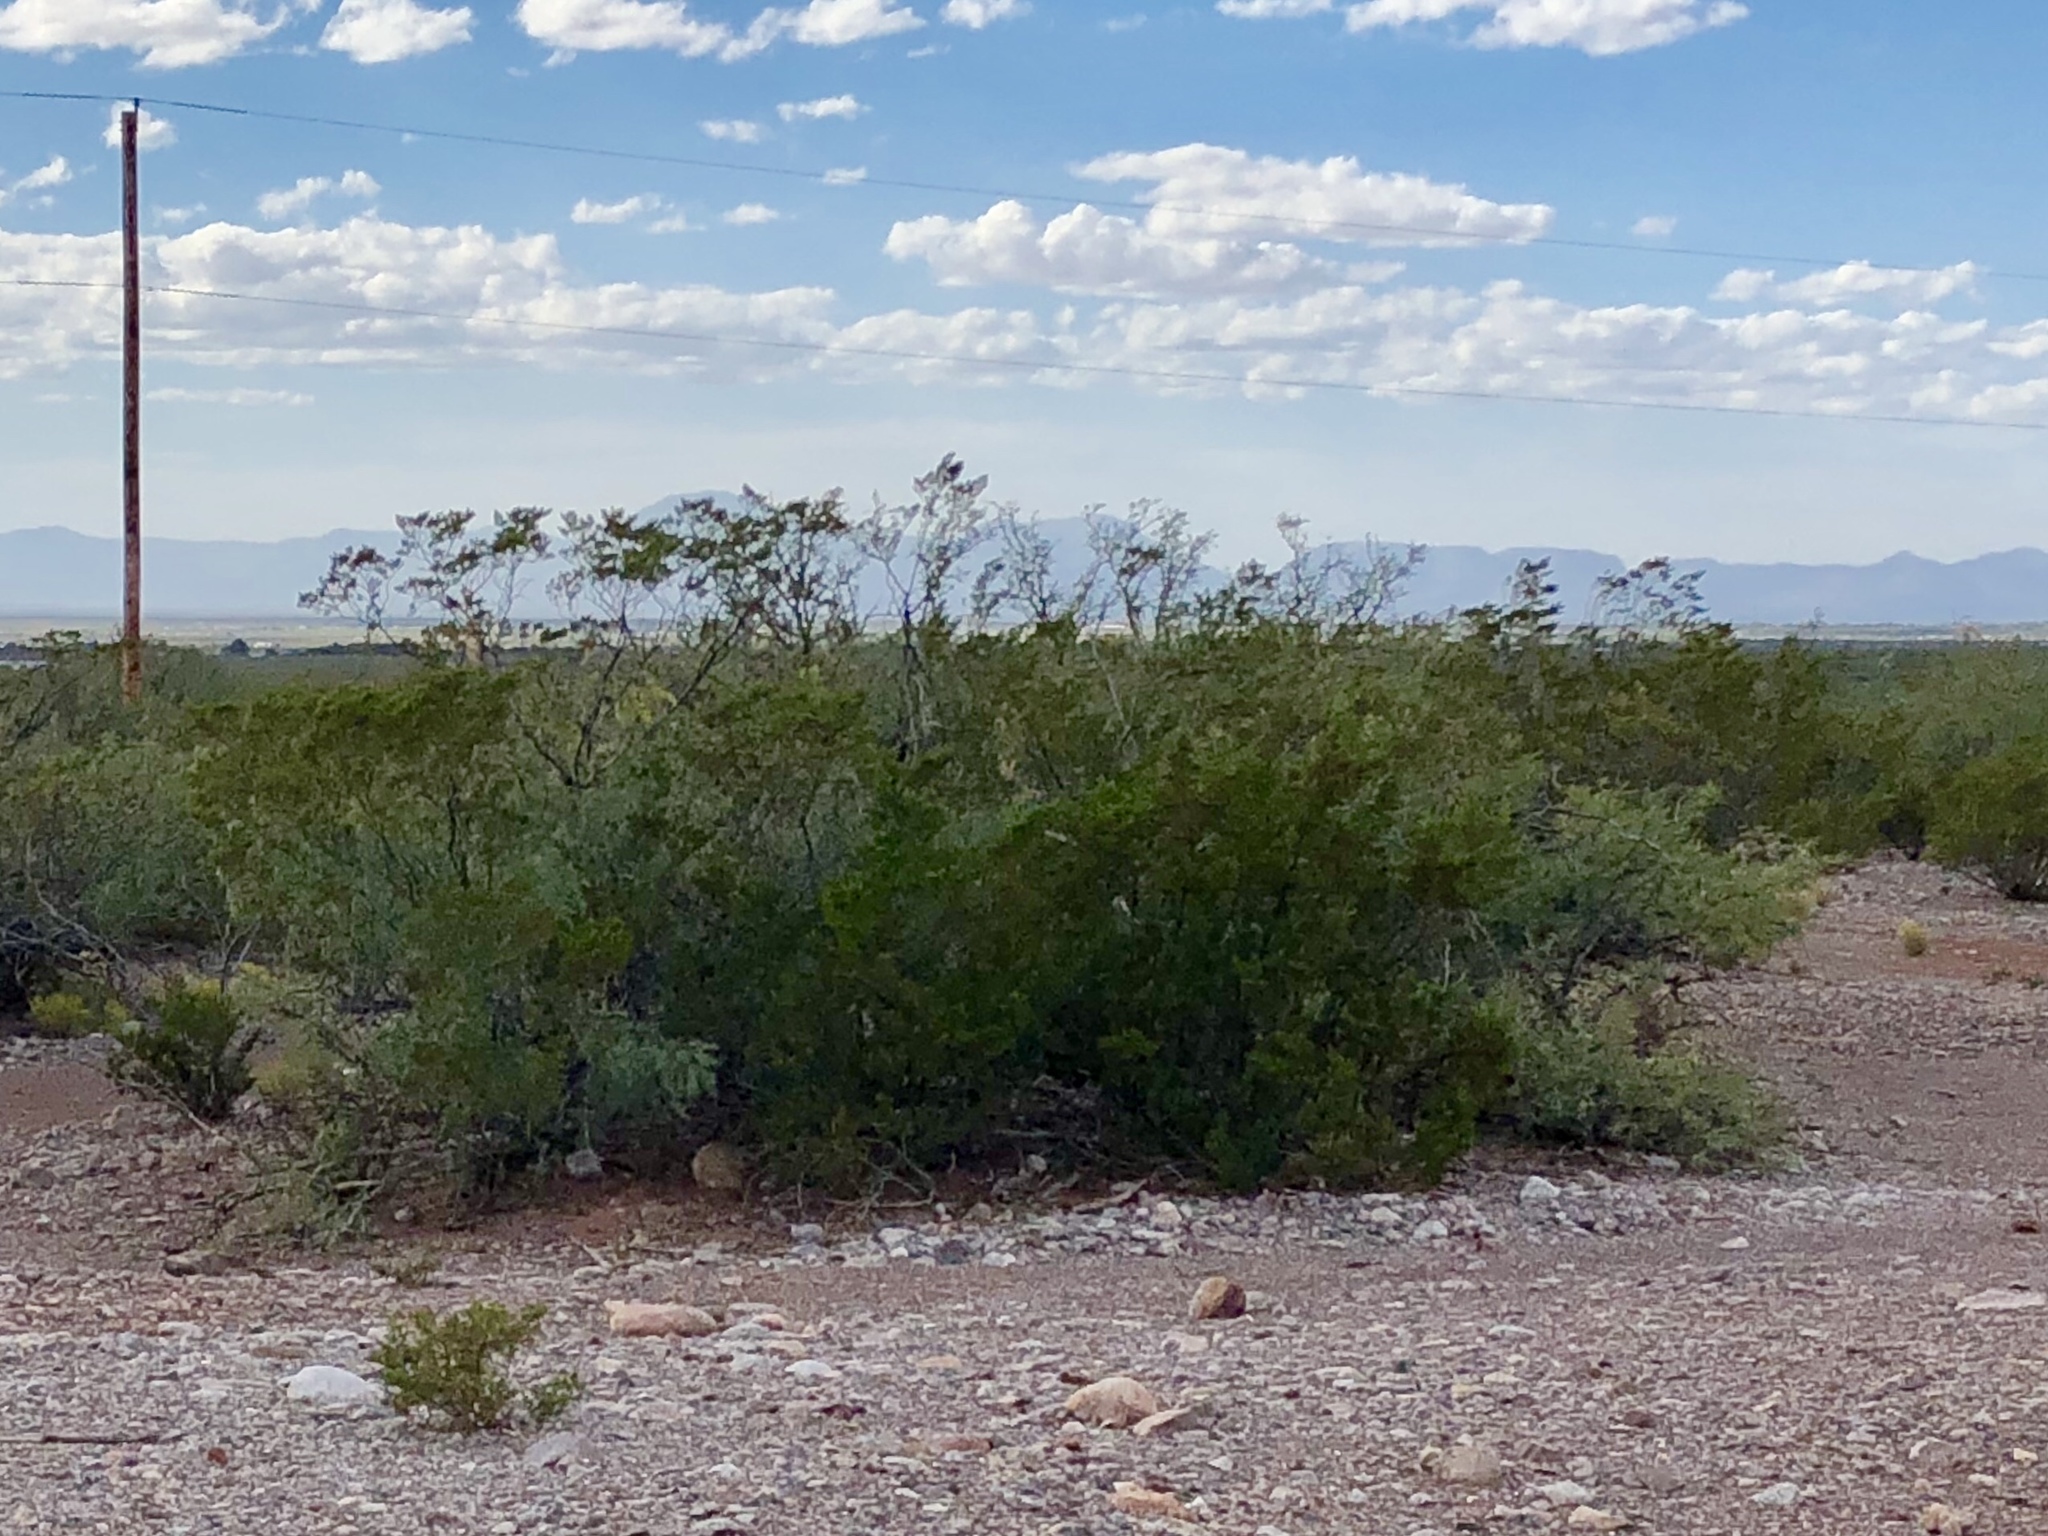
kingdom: Plantae
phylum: Tracheophyta
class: Magnoliopsida
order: Zygophyllales
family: Zygophyllaceae
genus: Larrea
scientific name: Larrea tridentata
